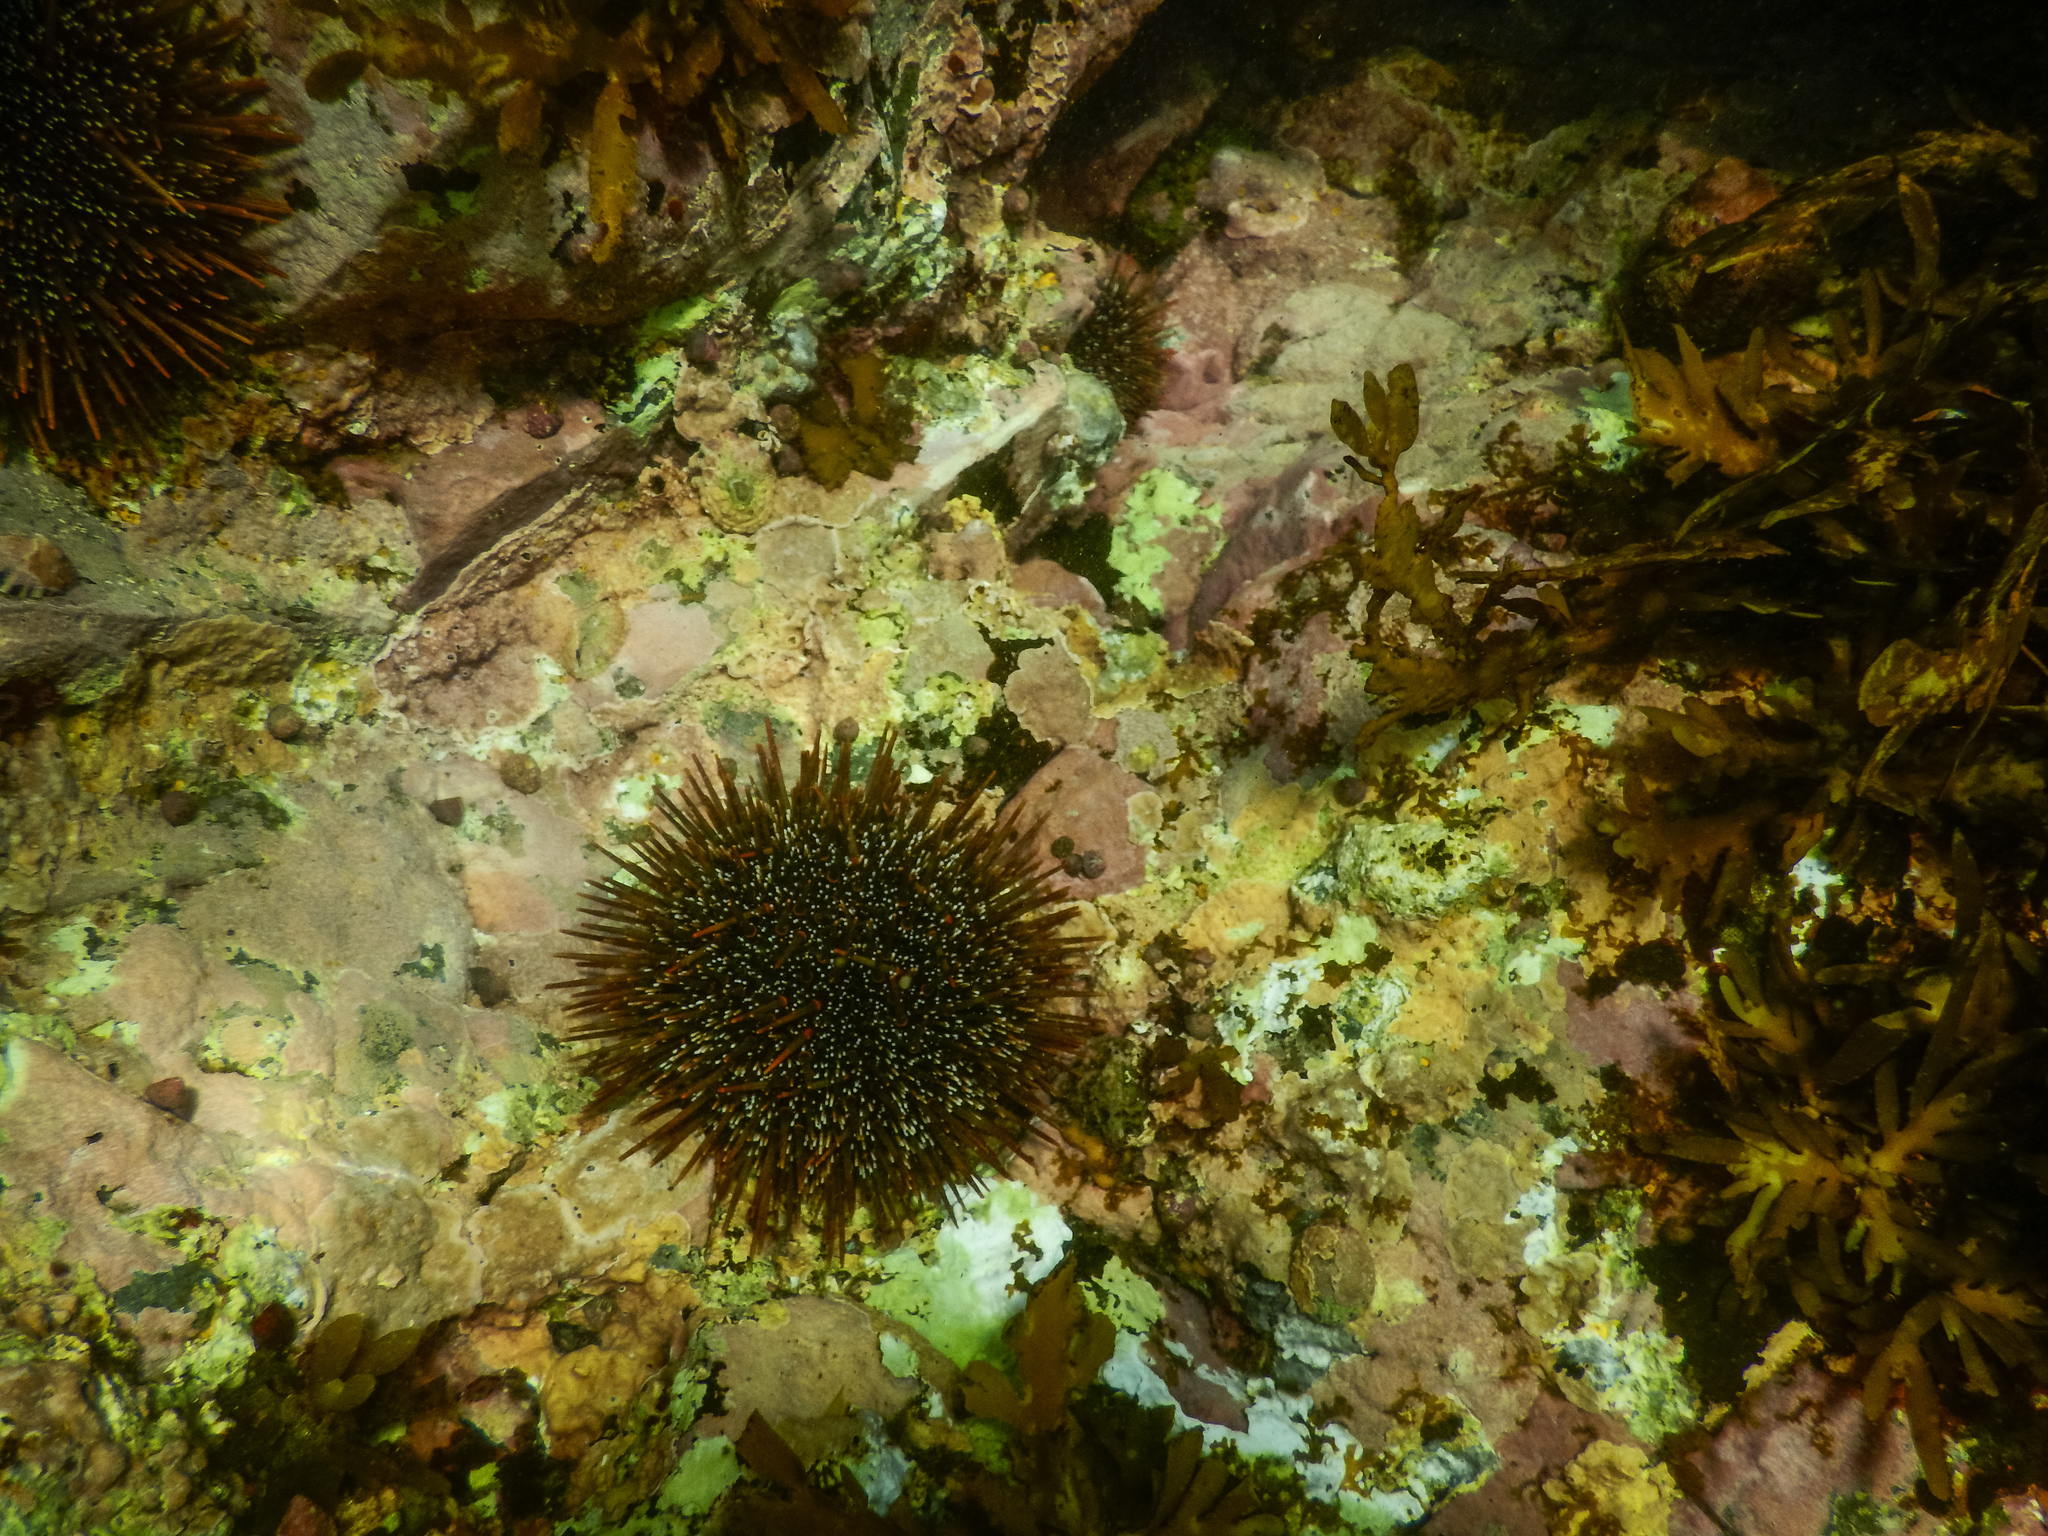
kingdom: Animalia
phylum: Echinodermata
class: Echinoidea
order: Camarodonta
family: Echinometridae
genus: Evechinus
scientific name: Evechinus chloroticus
